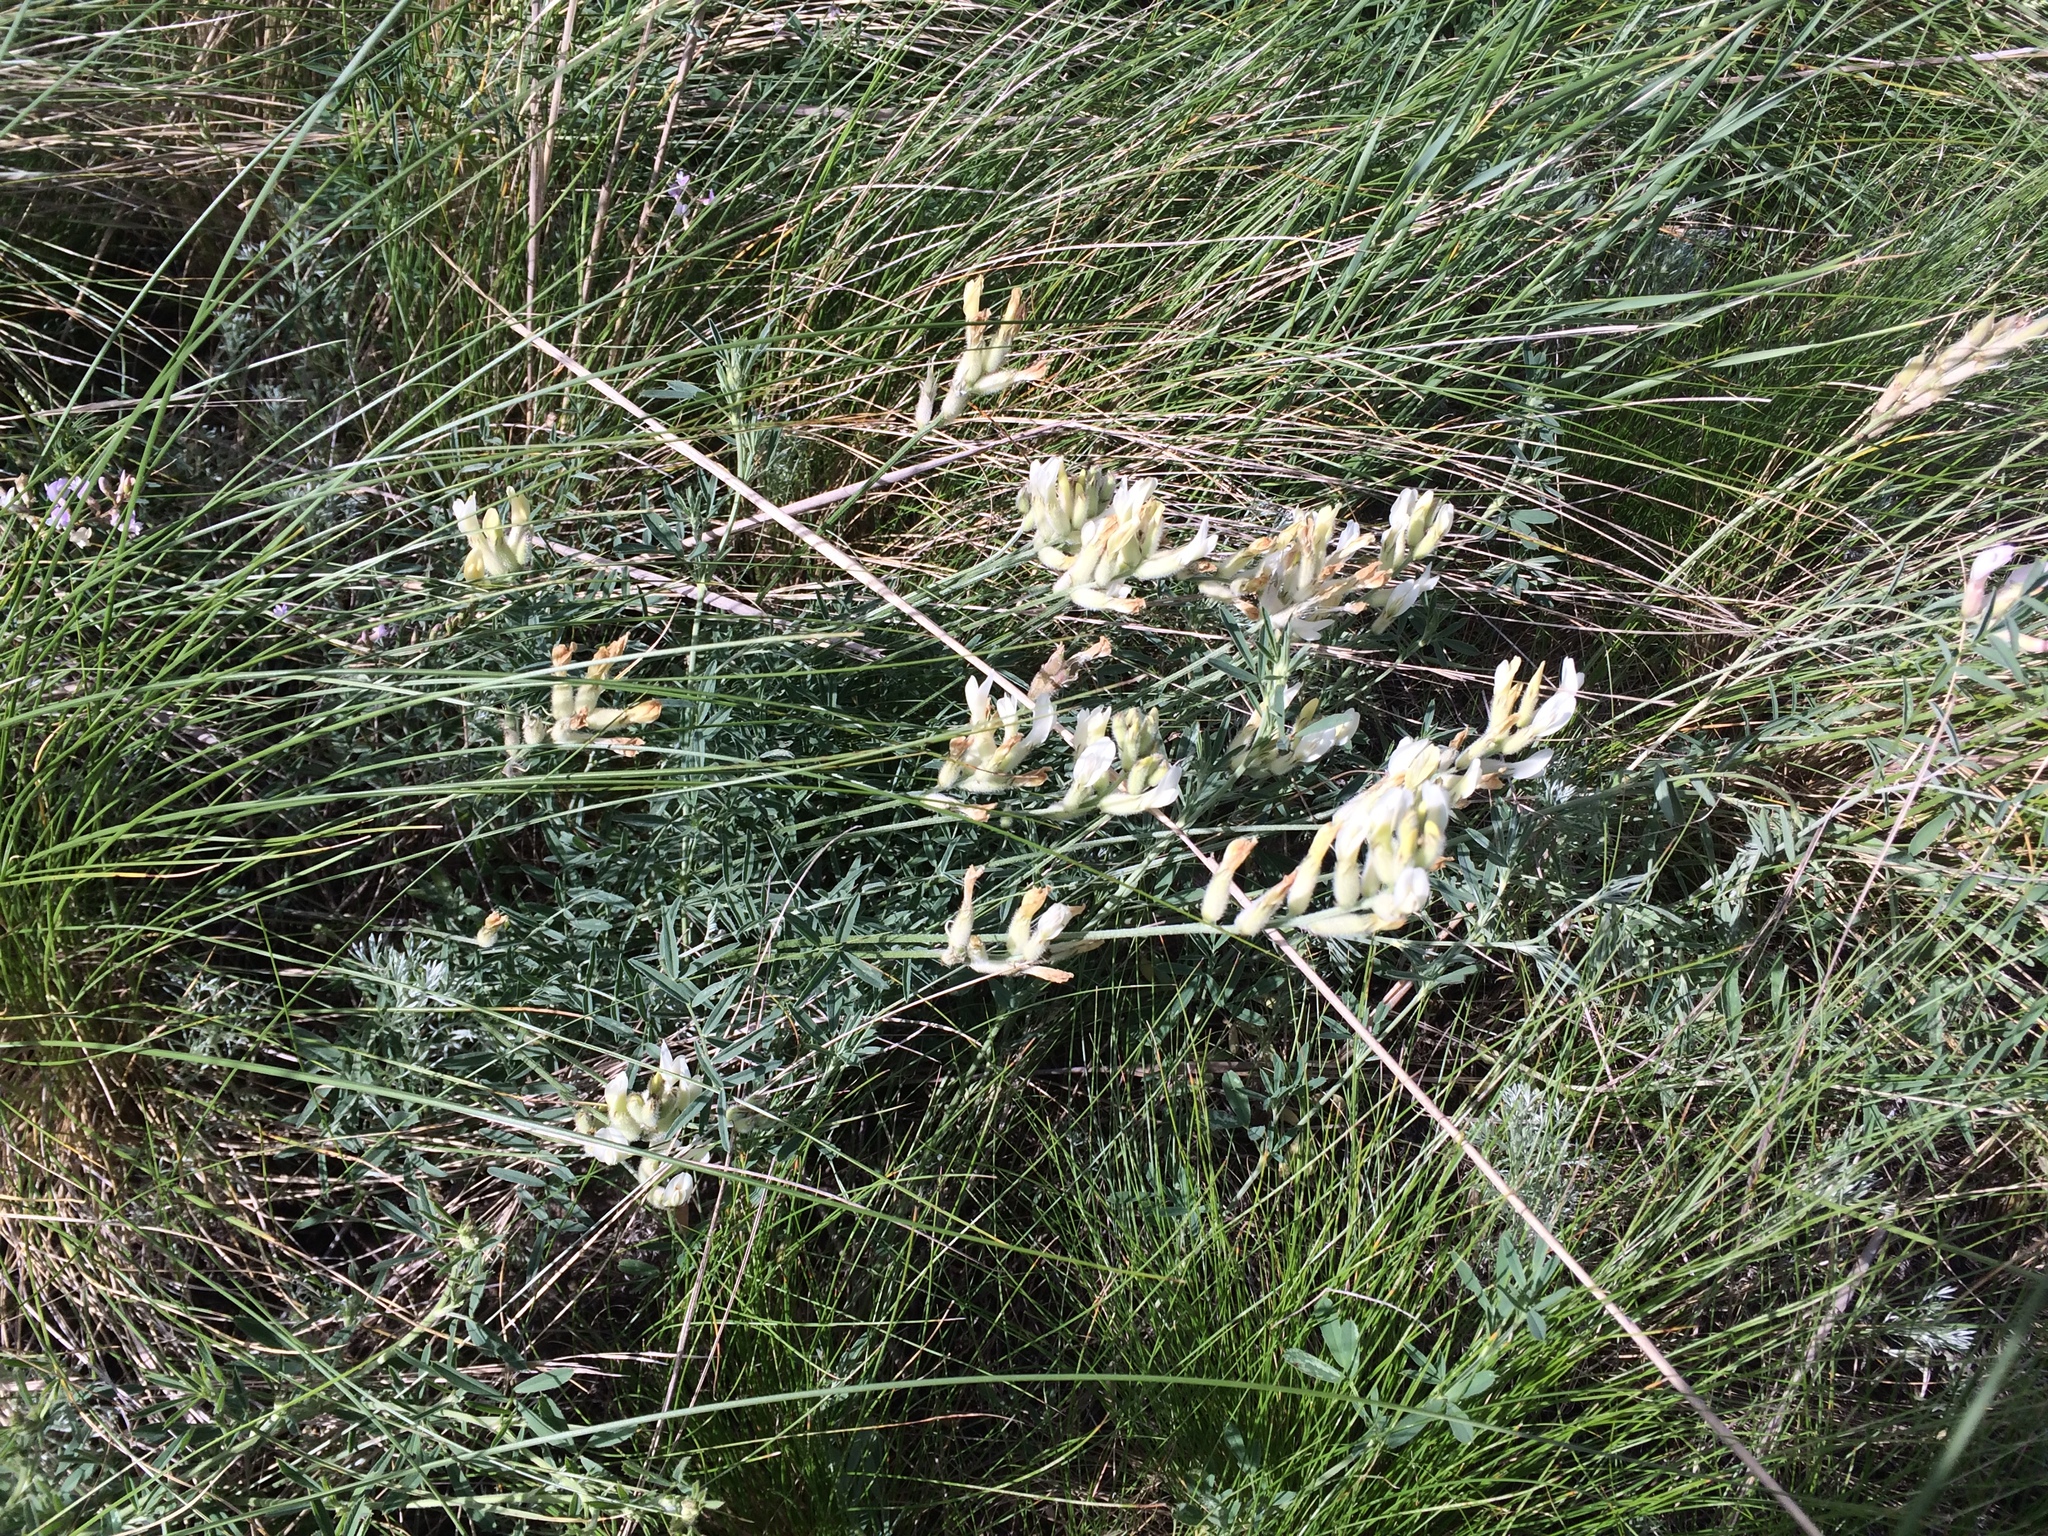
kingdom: Plantae
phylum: Tracheophyta
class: Magnoliopsida
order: Fabales
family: Fabaceae
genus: Astragalus
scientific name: Astragalus zingeri
